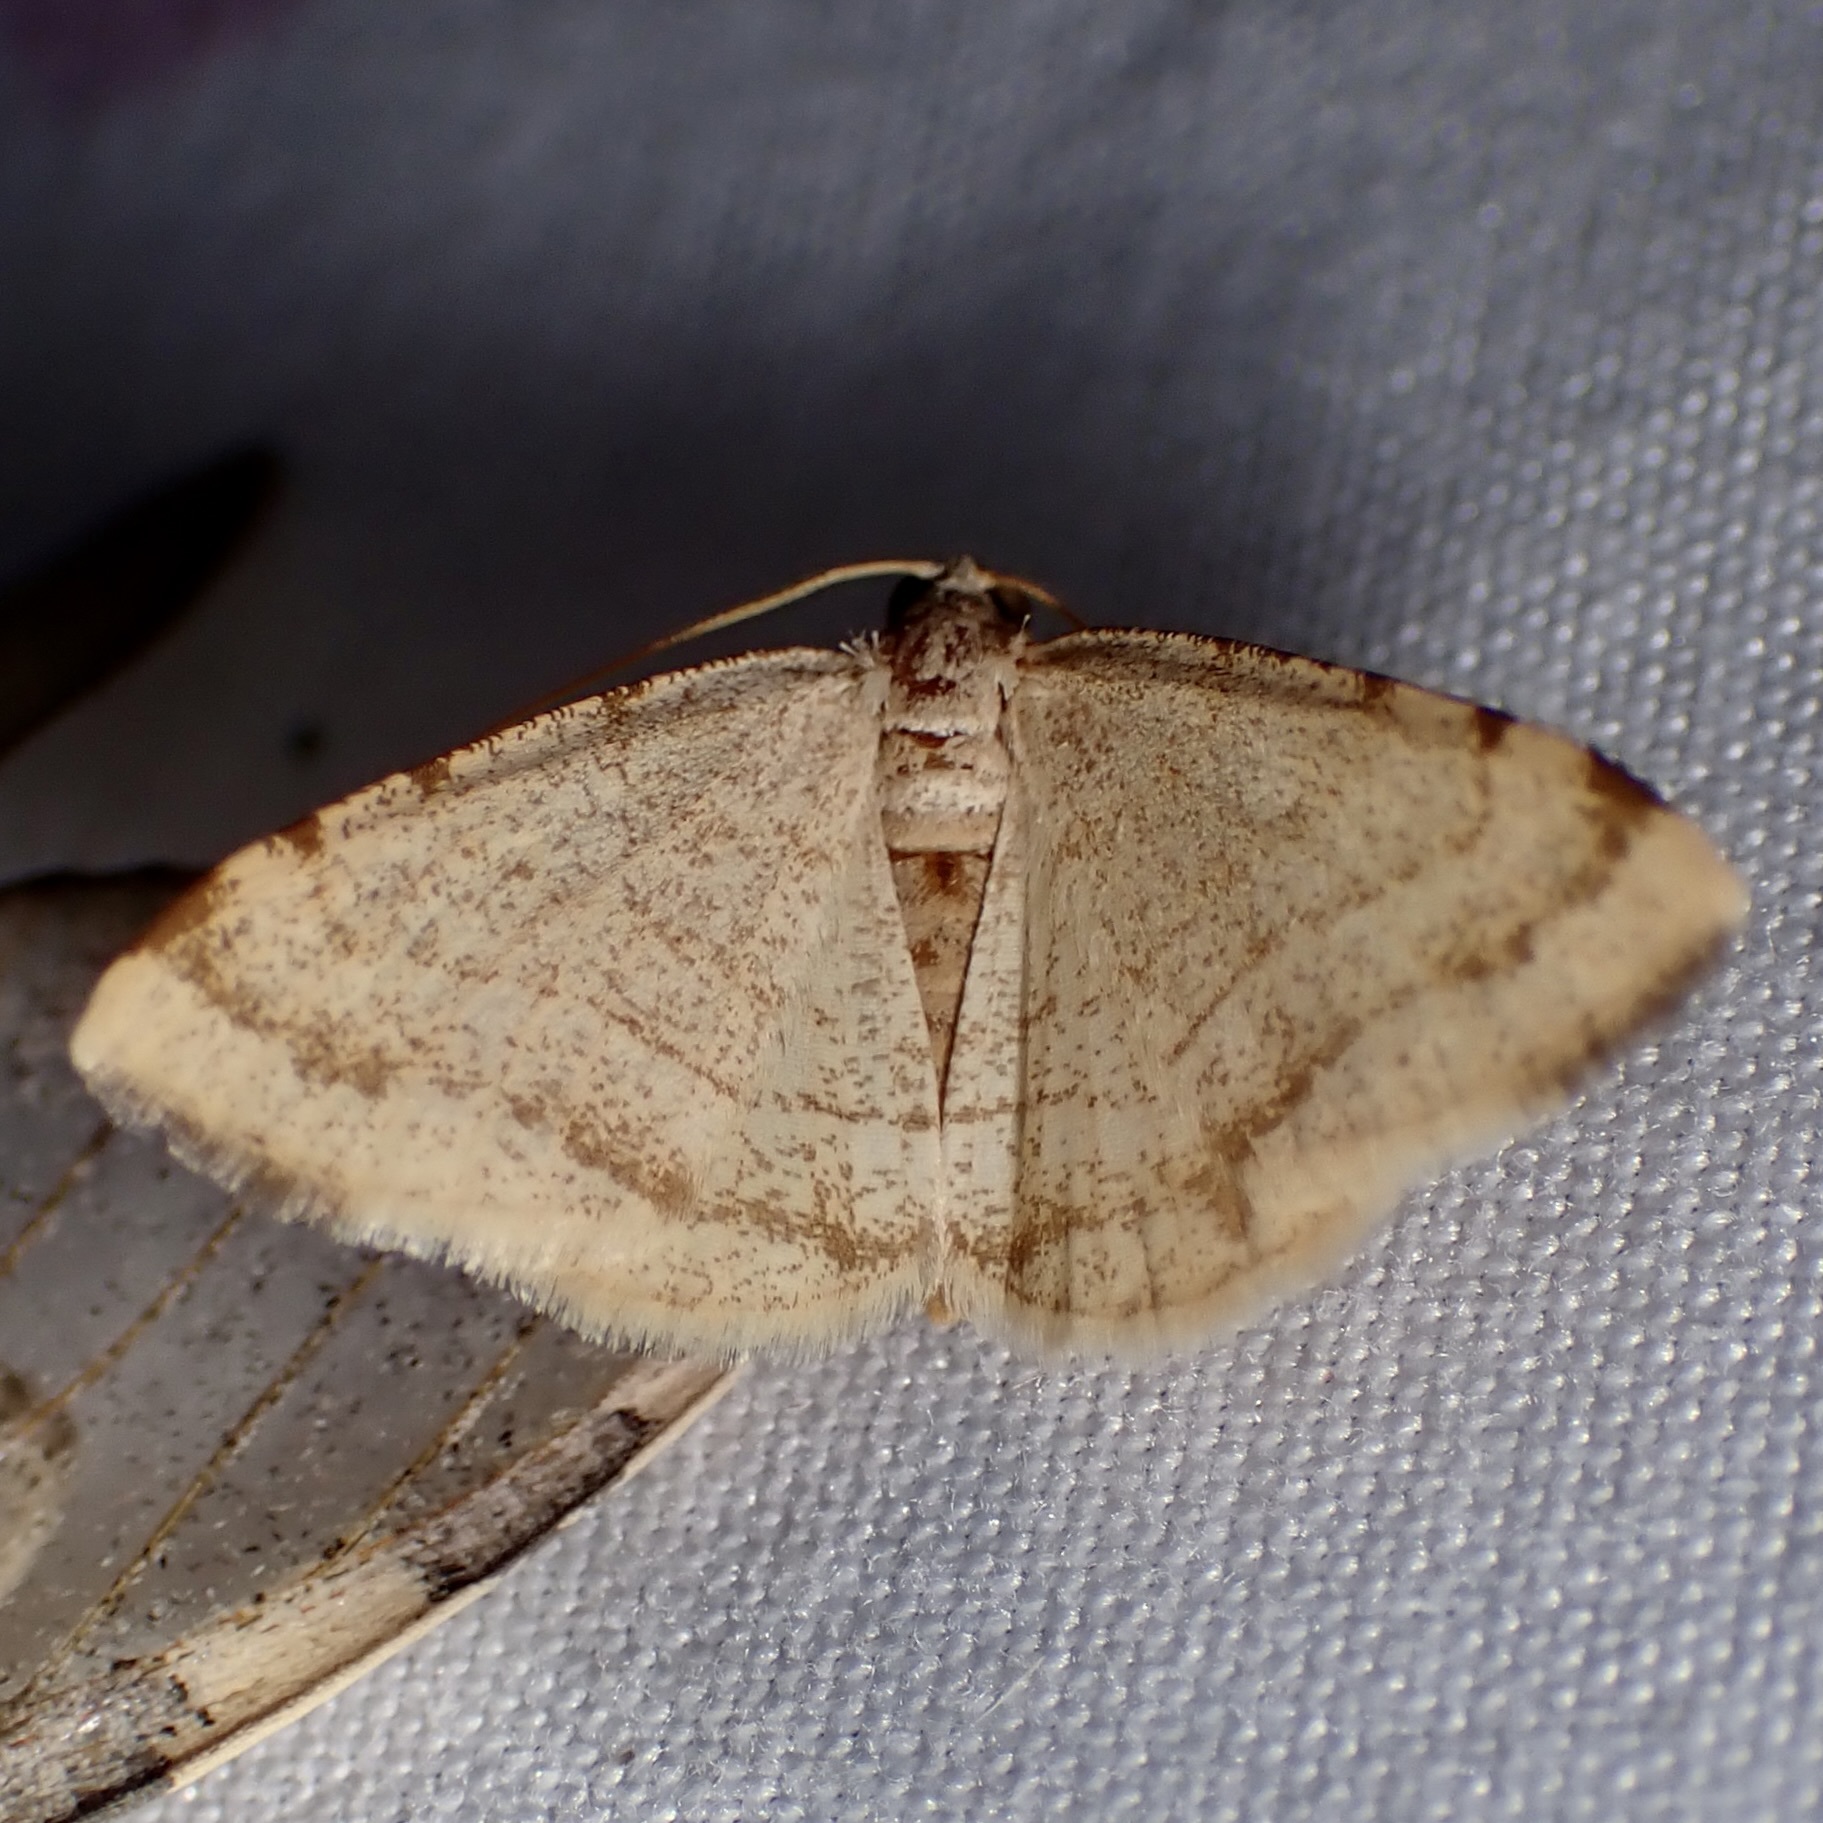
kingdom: Animalia
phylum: Arthropoda
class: Insecta
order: Lepidoptera
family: Geometridae
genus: Macaria
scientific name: Macaria octolineata
